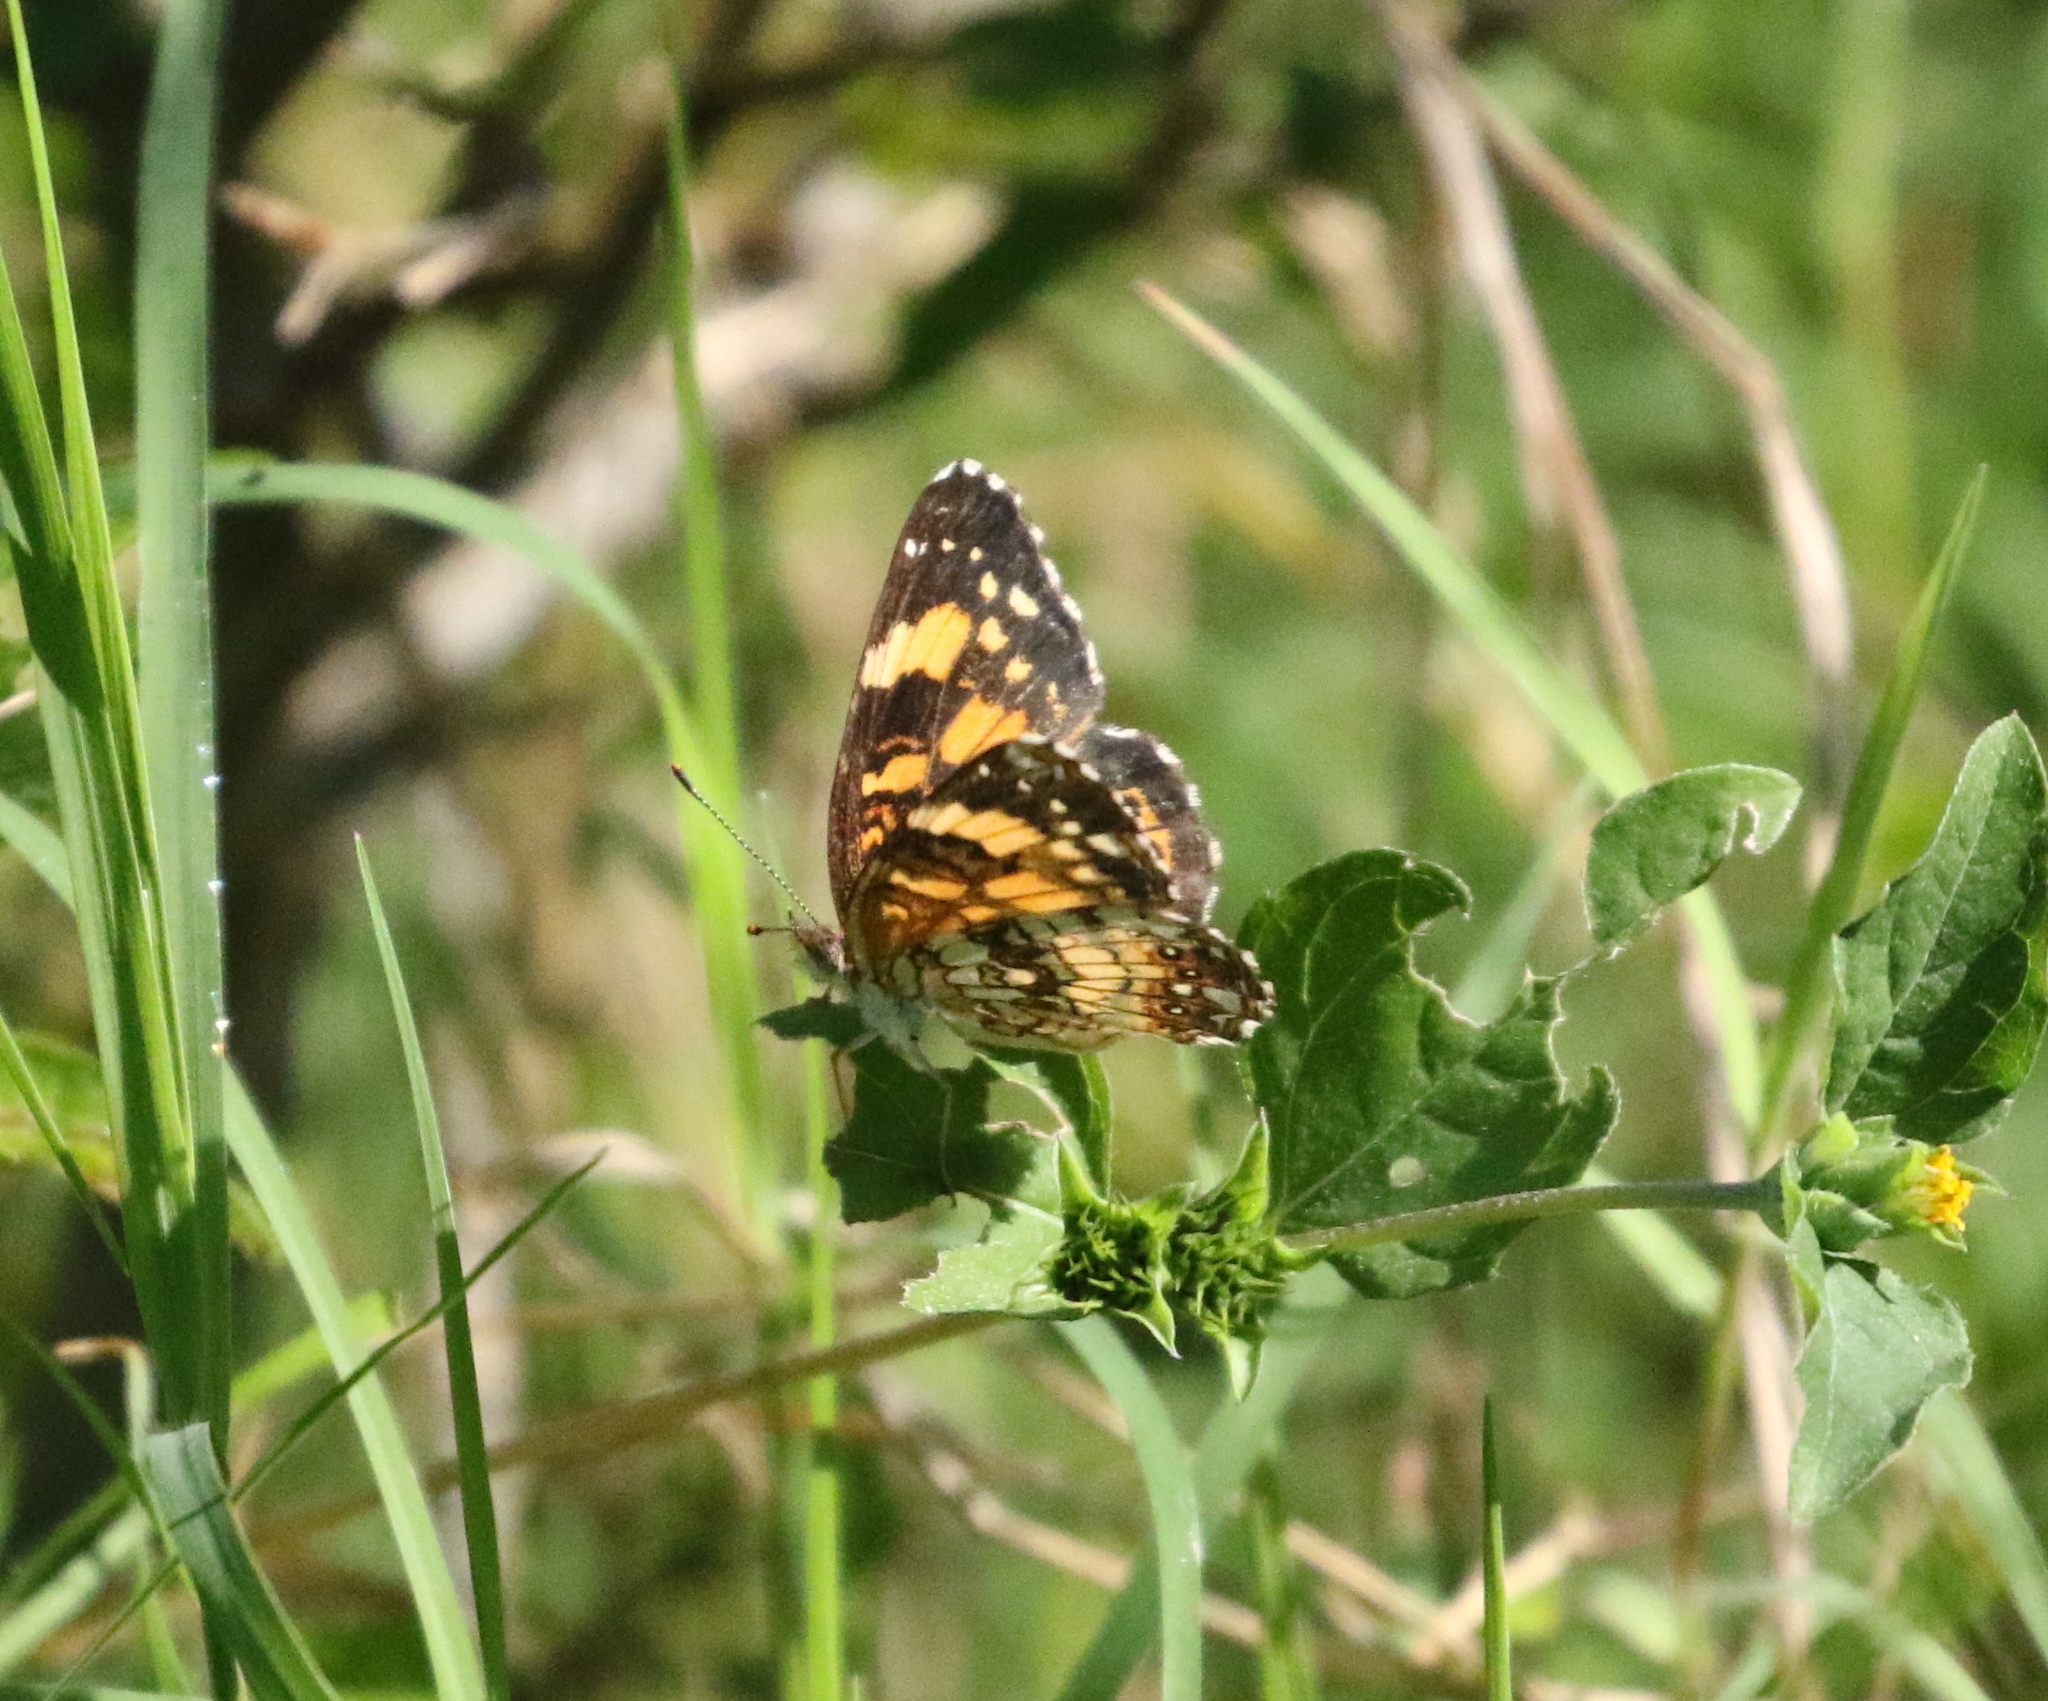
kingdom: Animalia
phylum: Arthropoda
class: Insecta
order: Lepidoptera
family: Nymphalidae
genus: Chlosyne
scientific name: Chlosyne nycteis
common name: Silvery checkerspot
